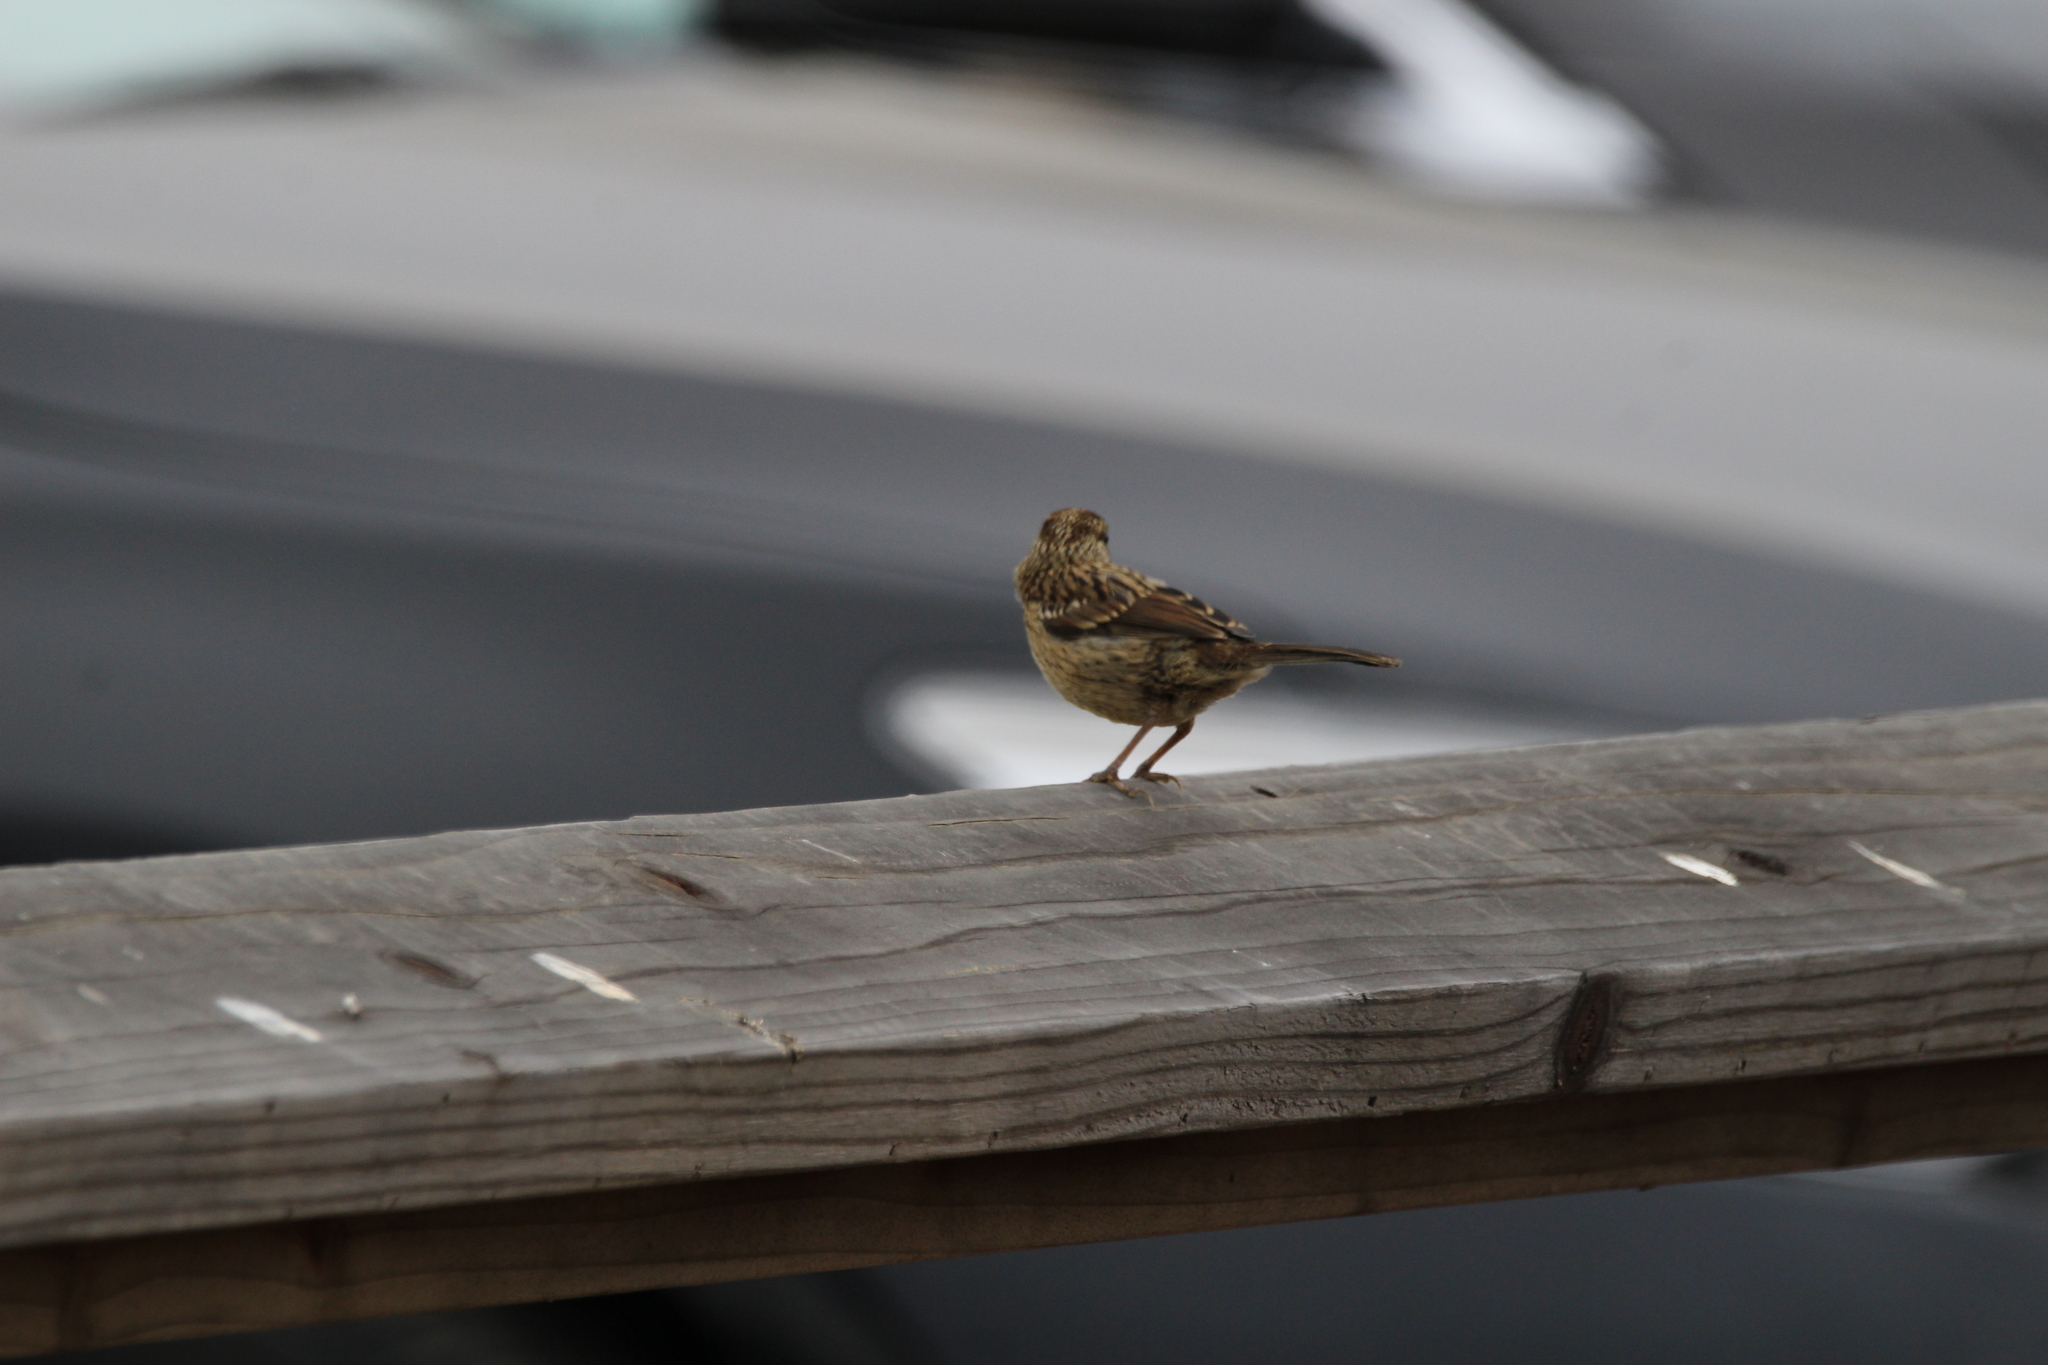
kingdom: Animalia
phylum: Chordata
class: Aves
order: Passeriformes
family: Passerellidae
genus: Zonotrichia
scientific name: Zonotrichia leucophrys
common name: White-crowned sparrow
